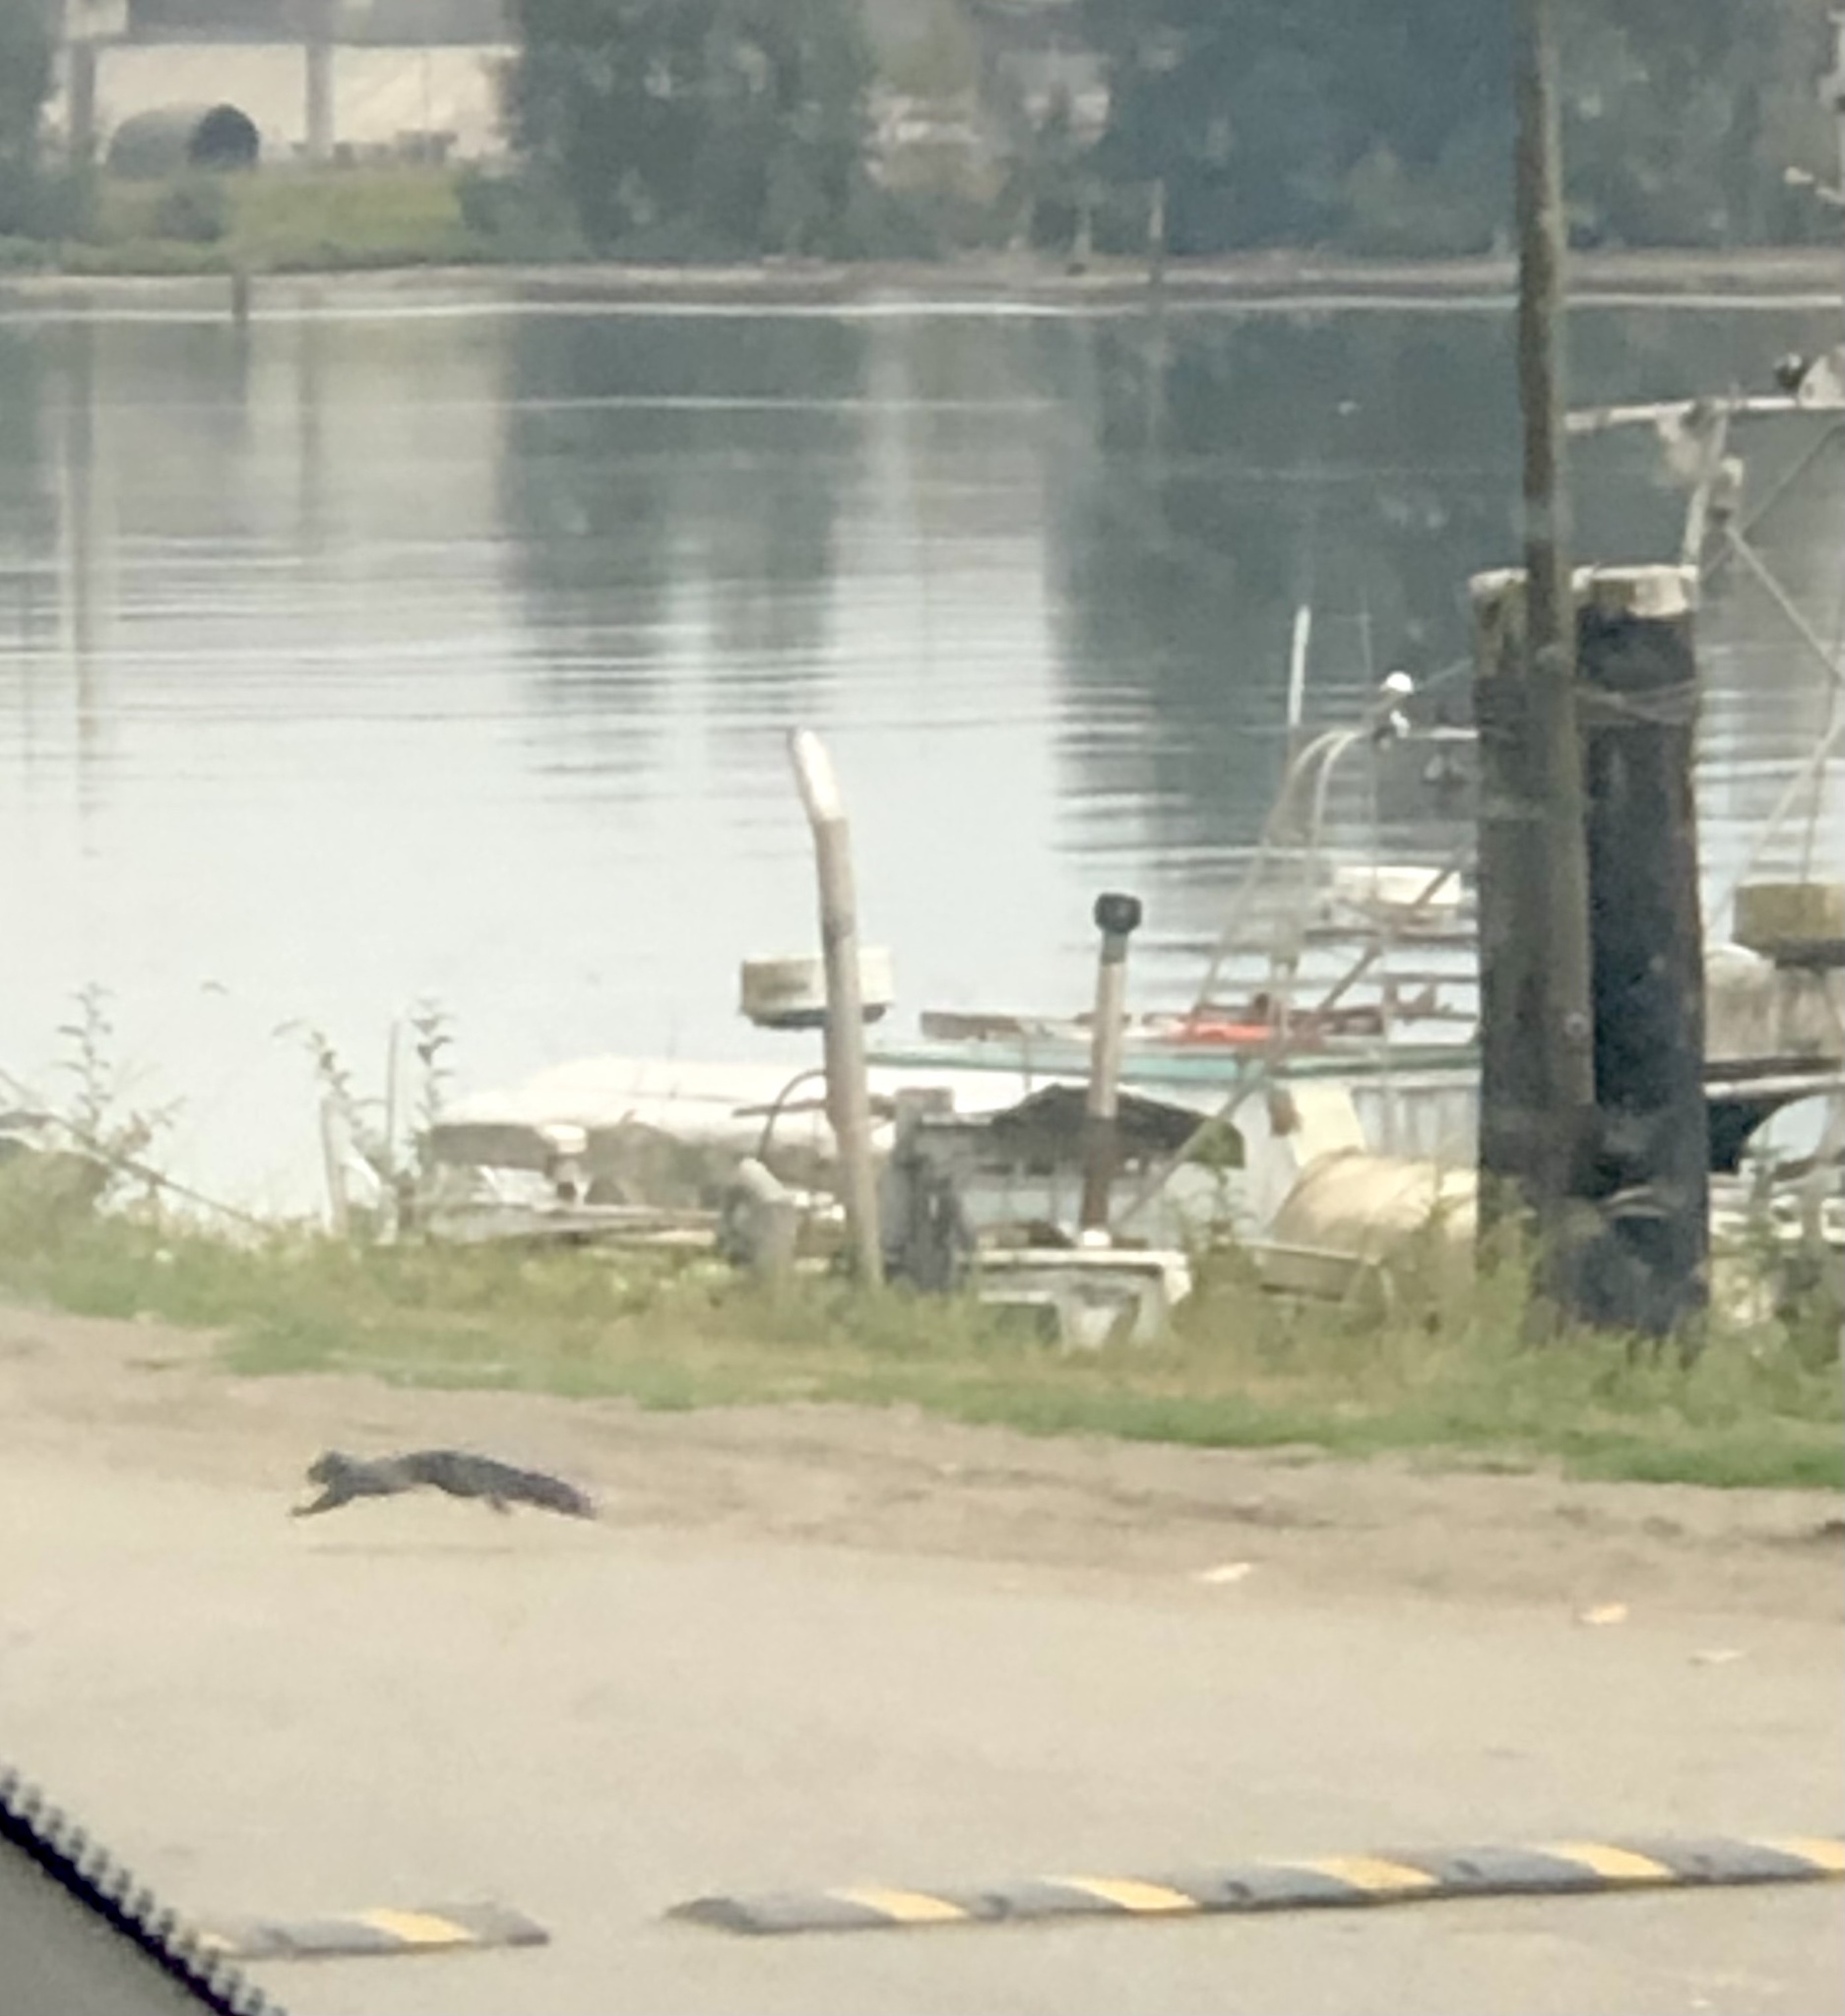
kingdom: Animalia
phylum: Chordata
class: Mammalia
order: Rodentia
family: Sciuridae
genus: Sciurus
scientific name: Sciurus carolinensis
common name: Eastern gray squirrel
